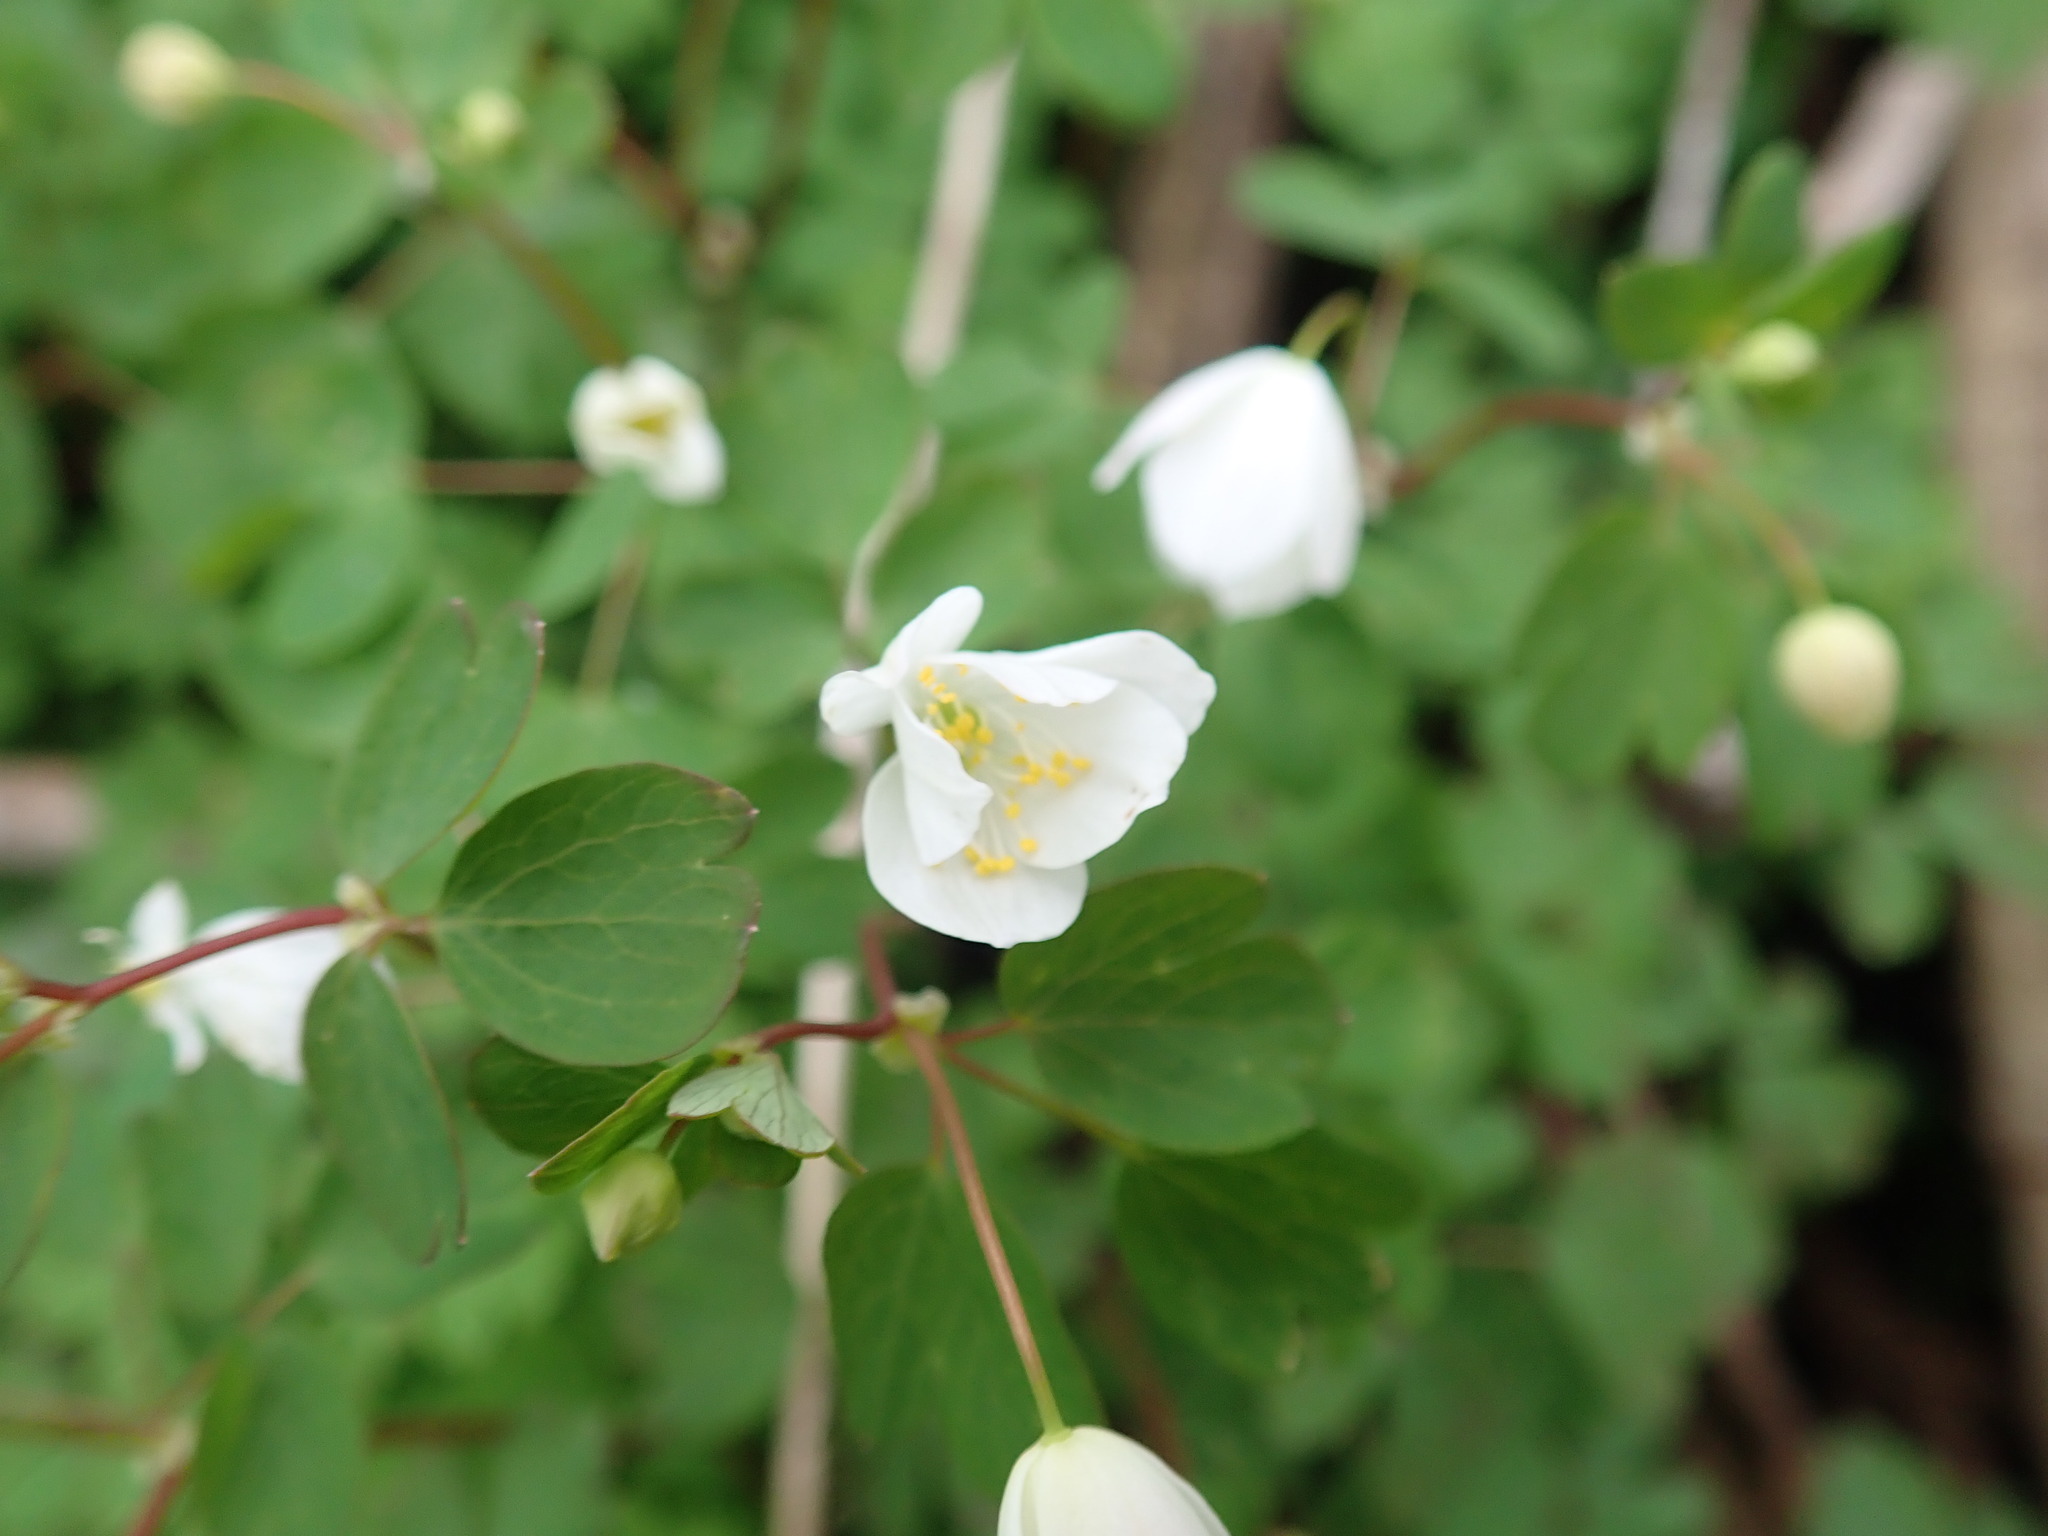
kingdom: Plantae
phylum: Tracheophyta
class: Magnoliopsida
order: Ranunculales
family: Ranunculaceae
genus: Enemion
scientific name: Enemion biternatum
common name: Eastern false rue-anemone
